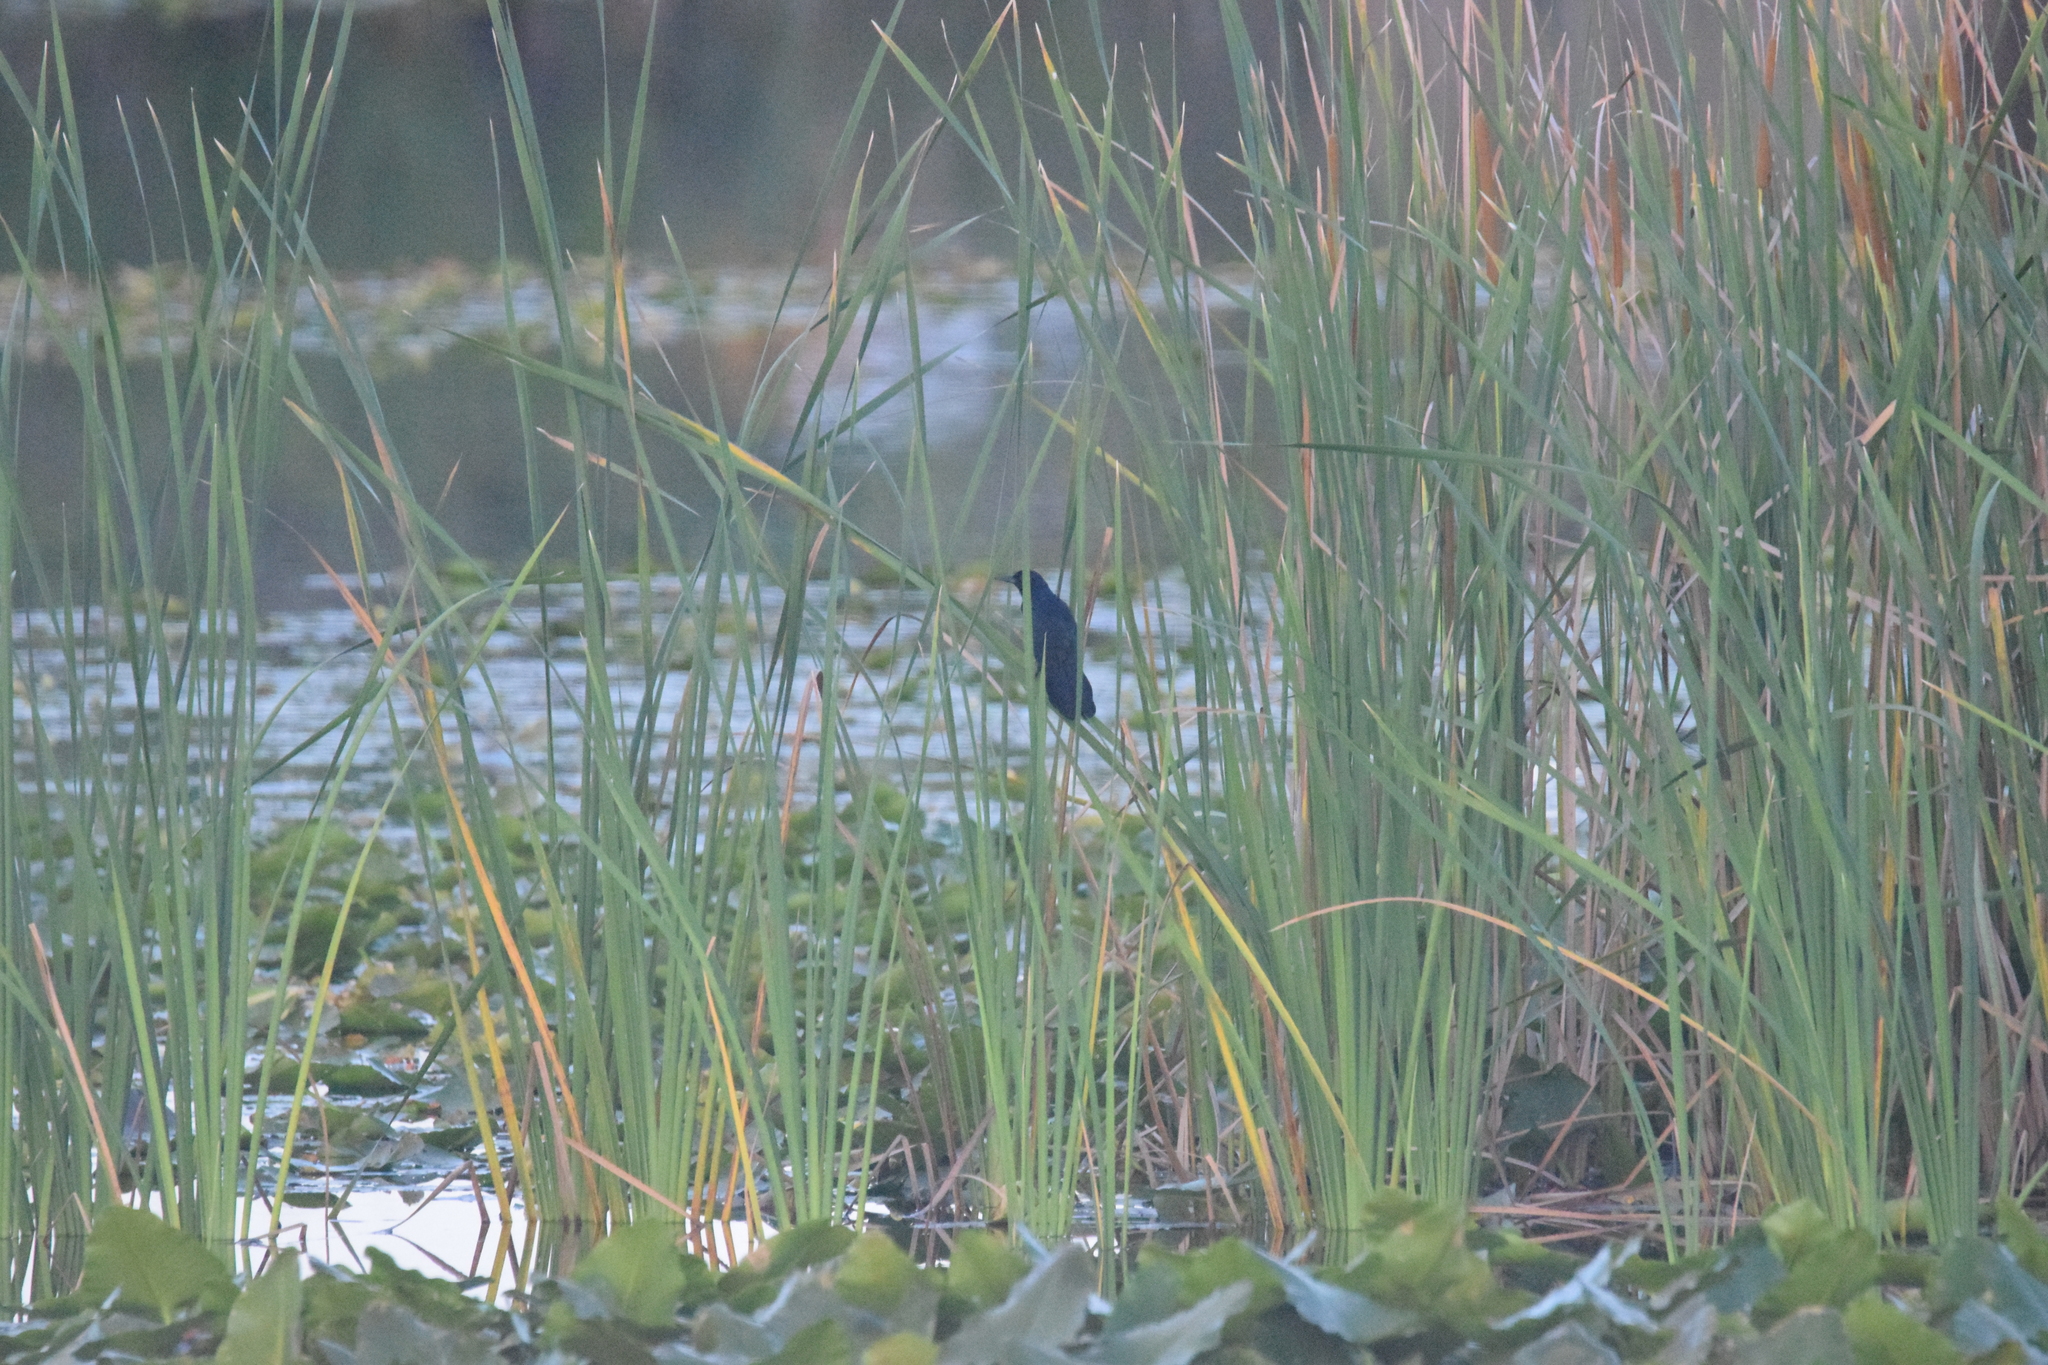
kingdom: Animalia
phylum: Chordata
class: Aves
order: Passeriformes
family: Icteridae
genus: Quiscalus
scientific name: Quiscalus major
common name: Boat-tailed grackle
